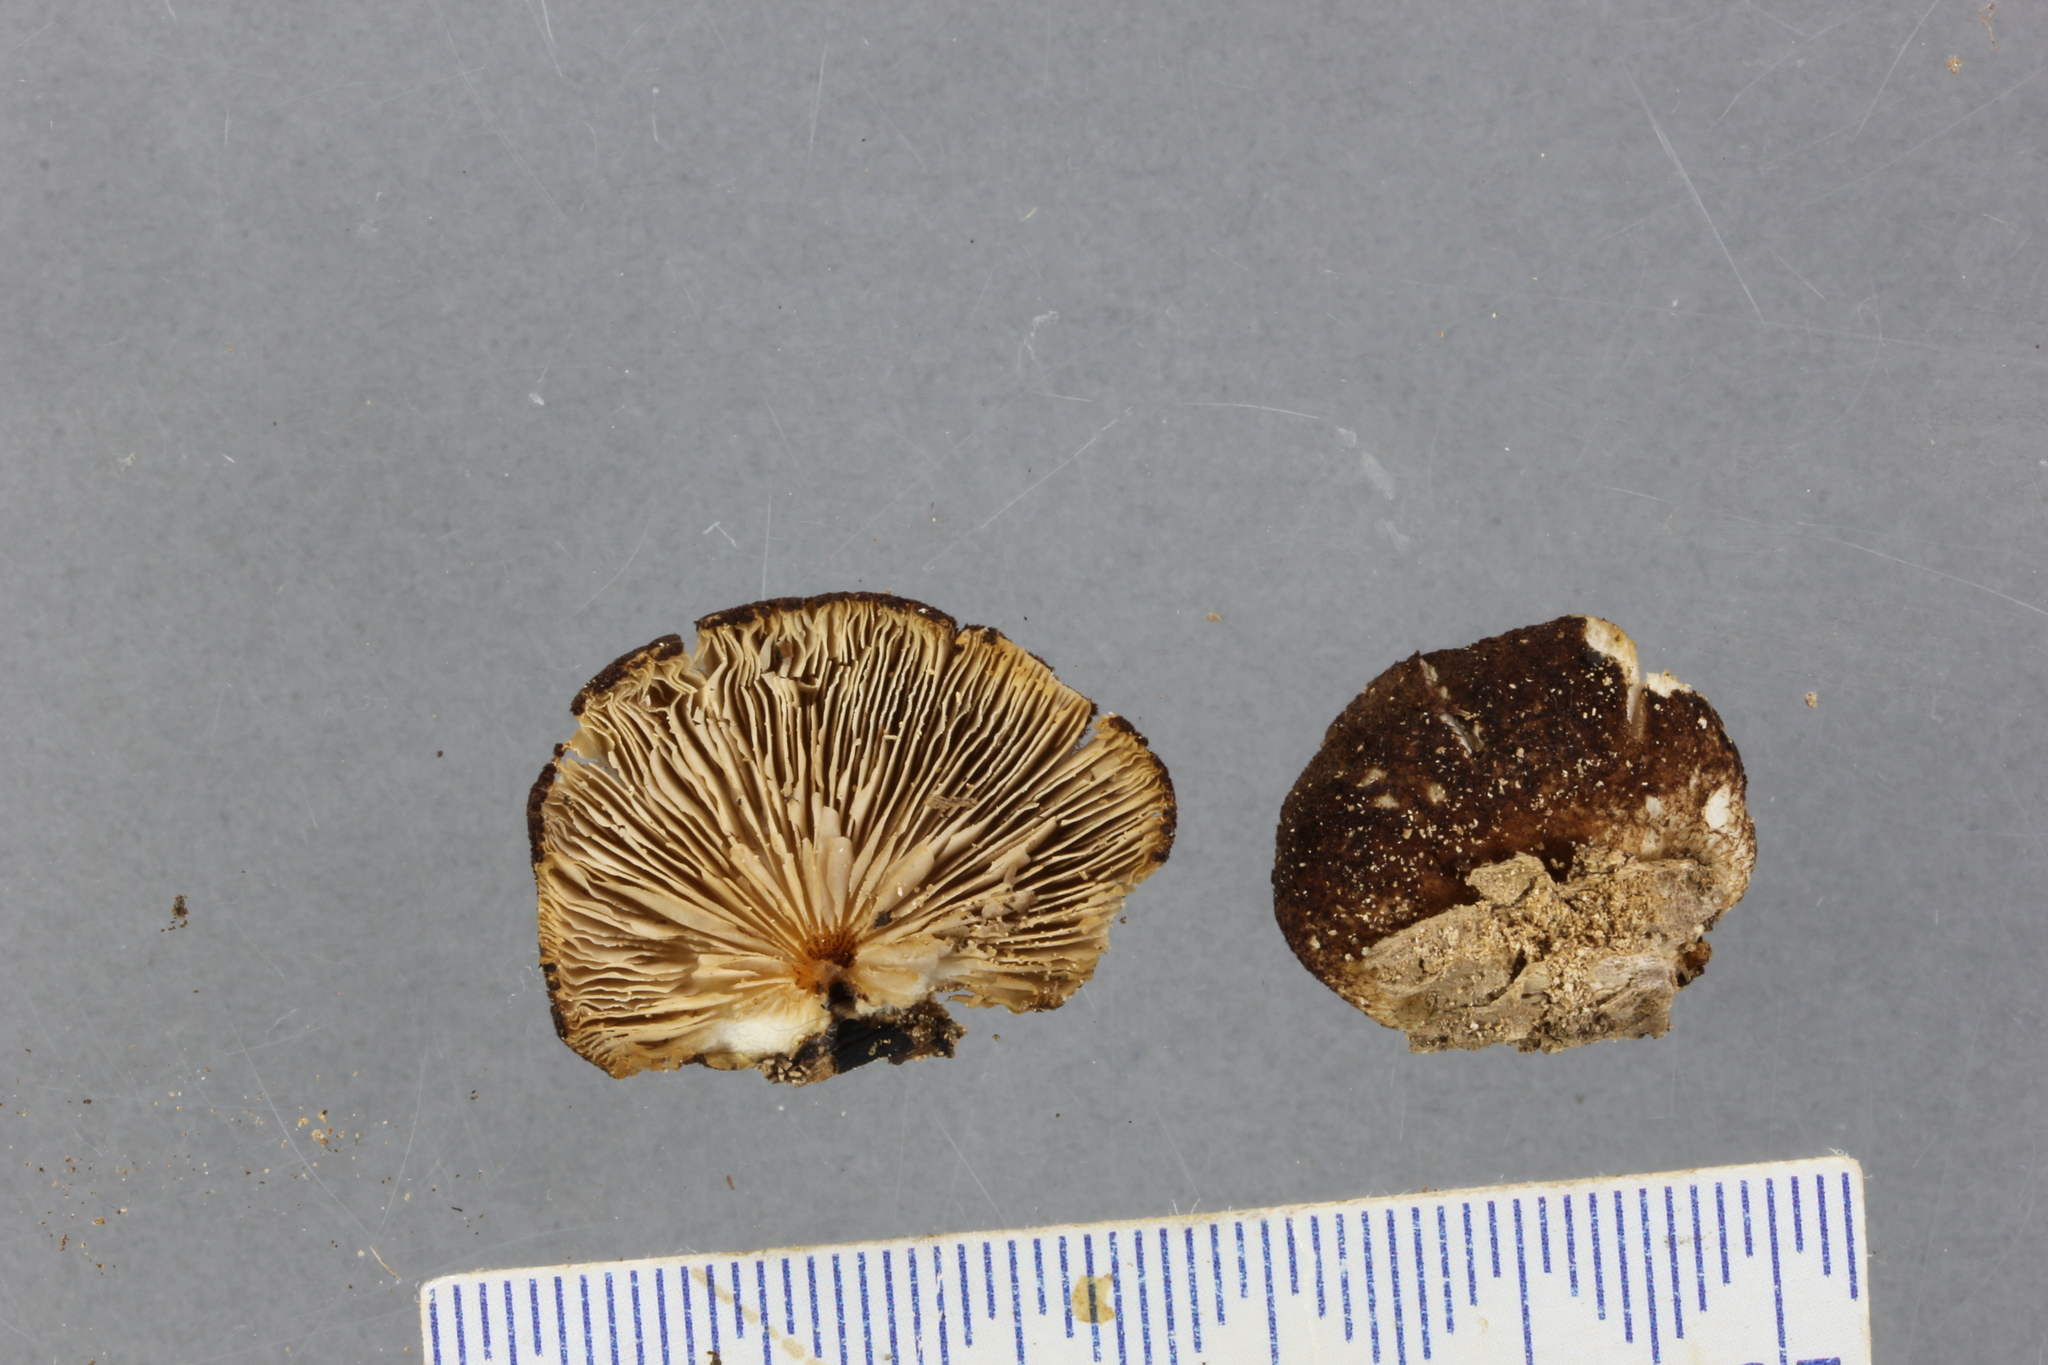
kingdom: Fungi
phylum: Basidiomycota
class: Agaricomycetes
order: Agaricales
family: Crepidotaceae
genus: Crepidotus
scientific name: Crepidotus fuscovelutinus
